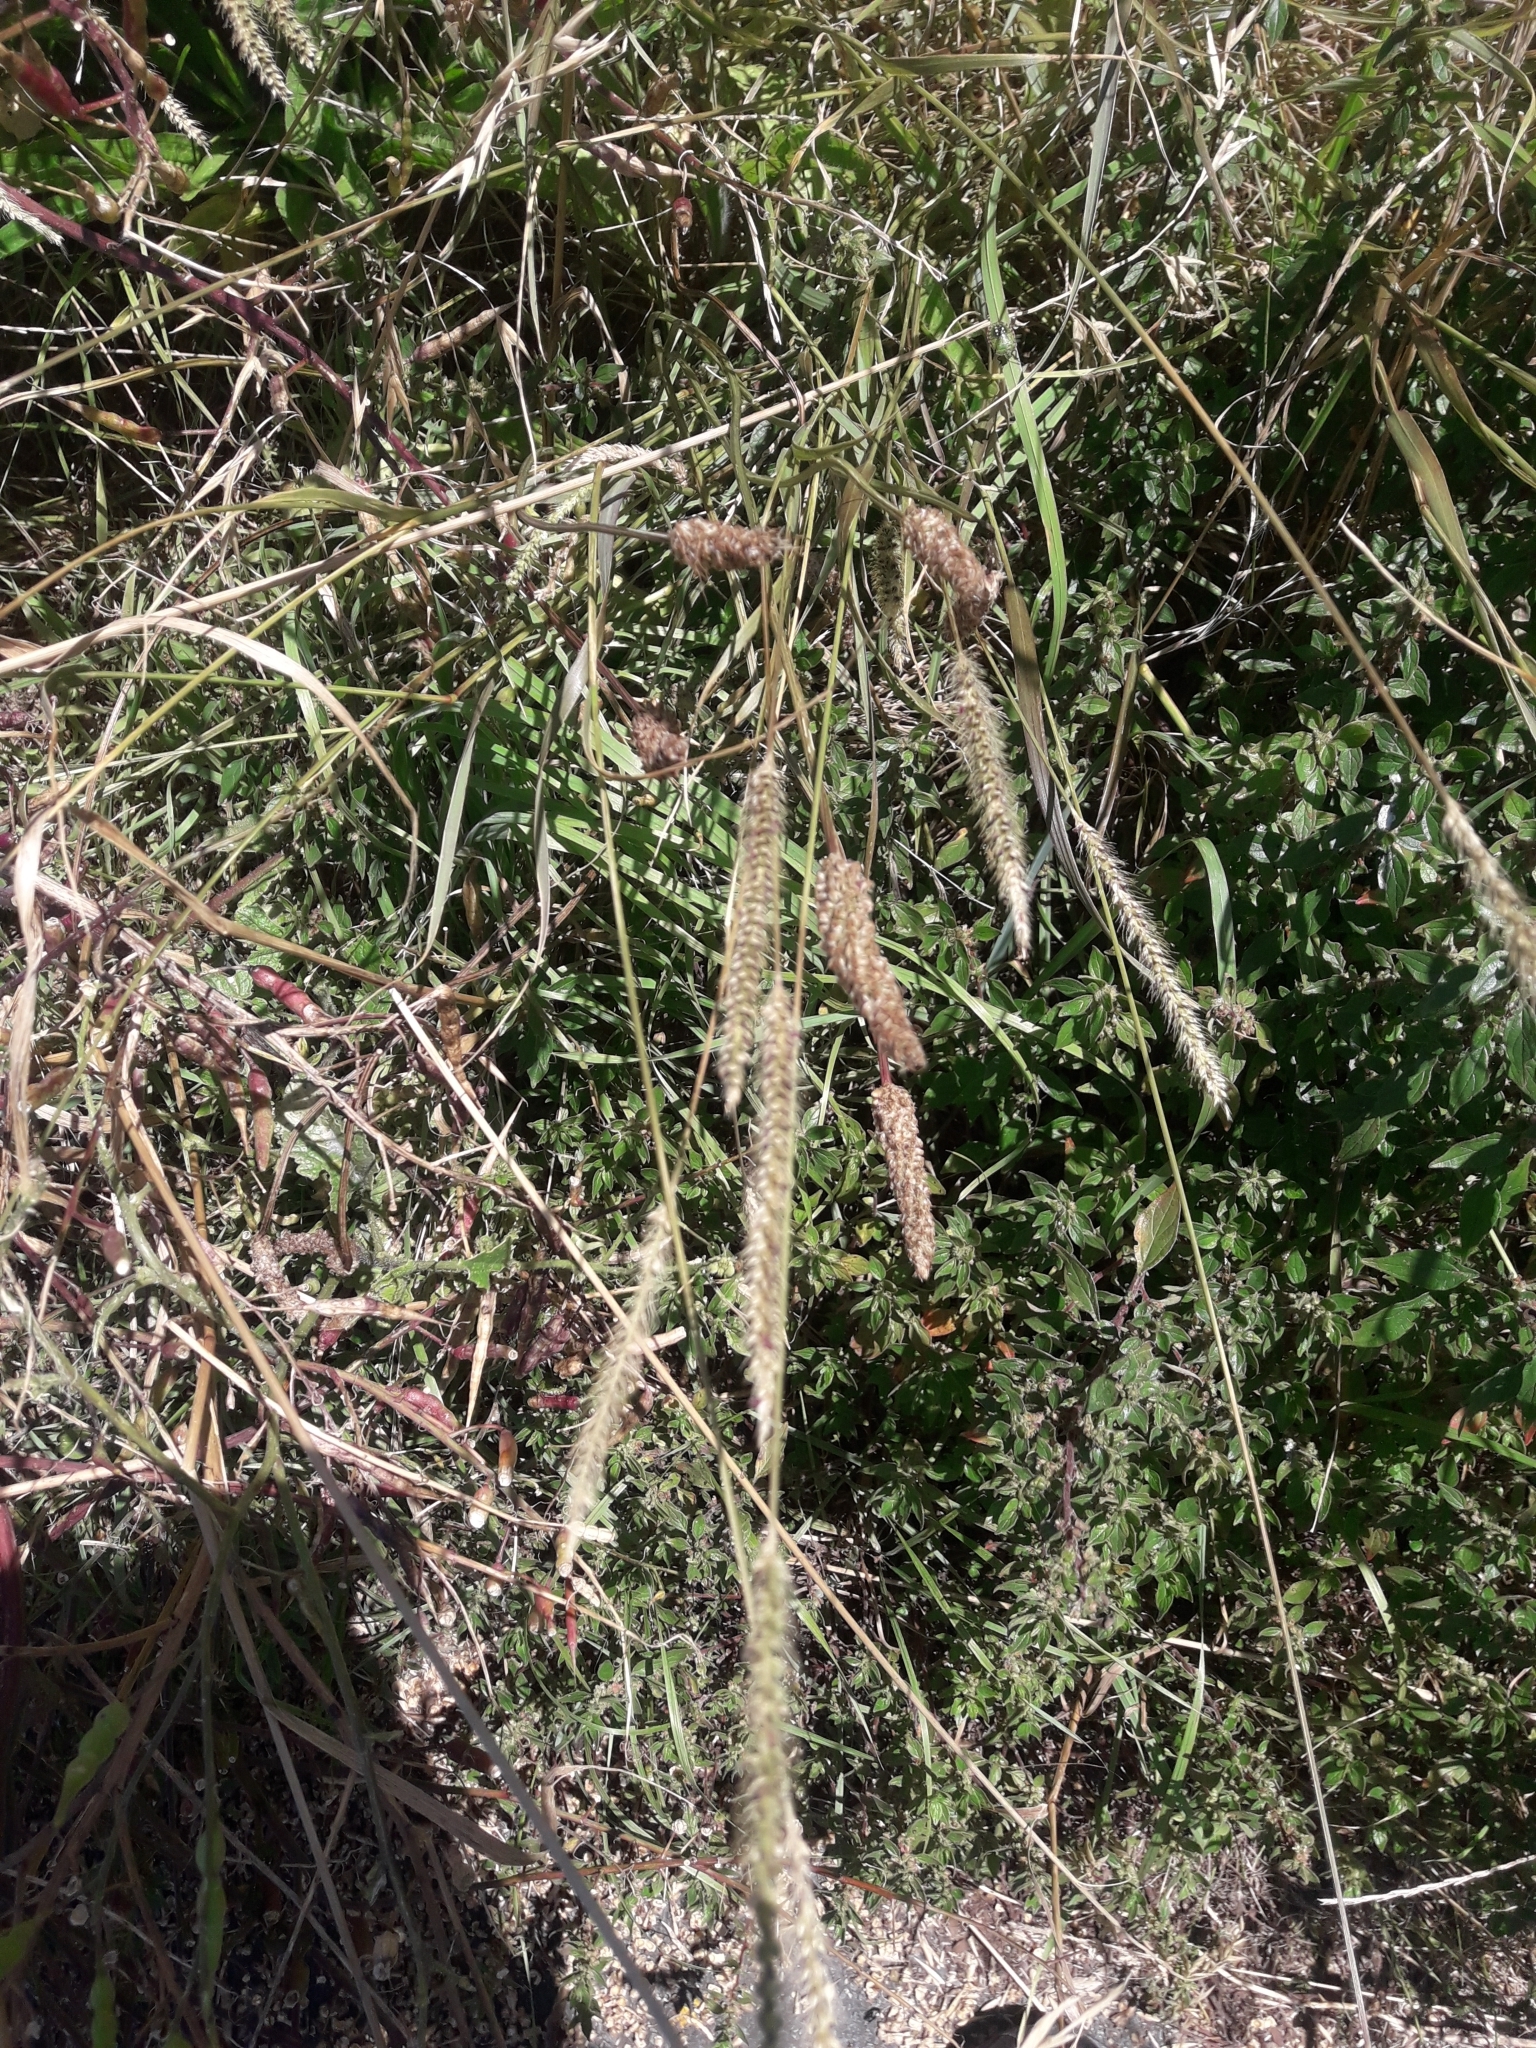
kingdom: Plantae
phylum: Tracheophyta
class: Liliopsida
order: Poales
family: Poaceae
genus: Cynosurus
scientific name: Cynosurus cristatus
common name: Crested dog's-tail
